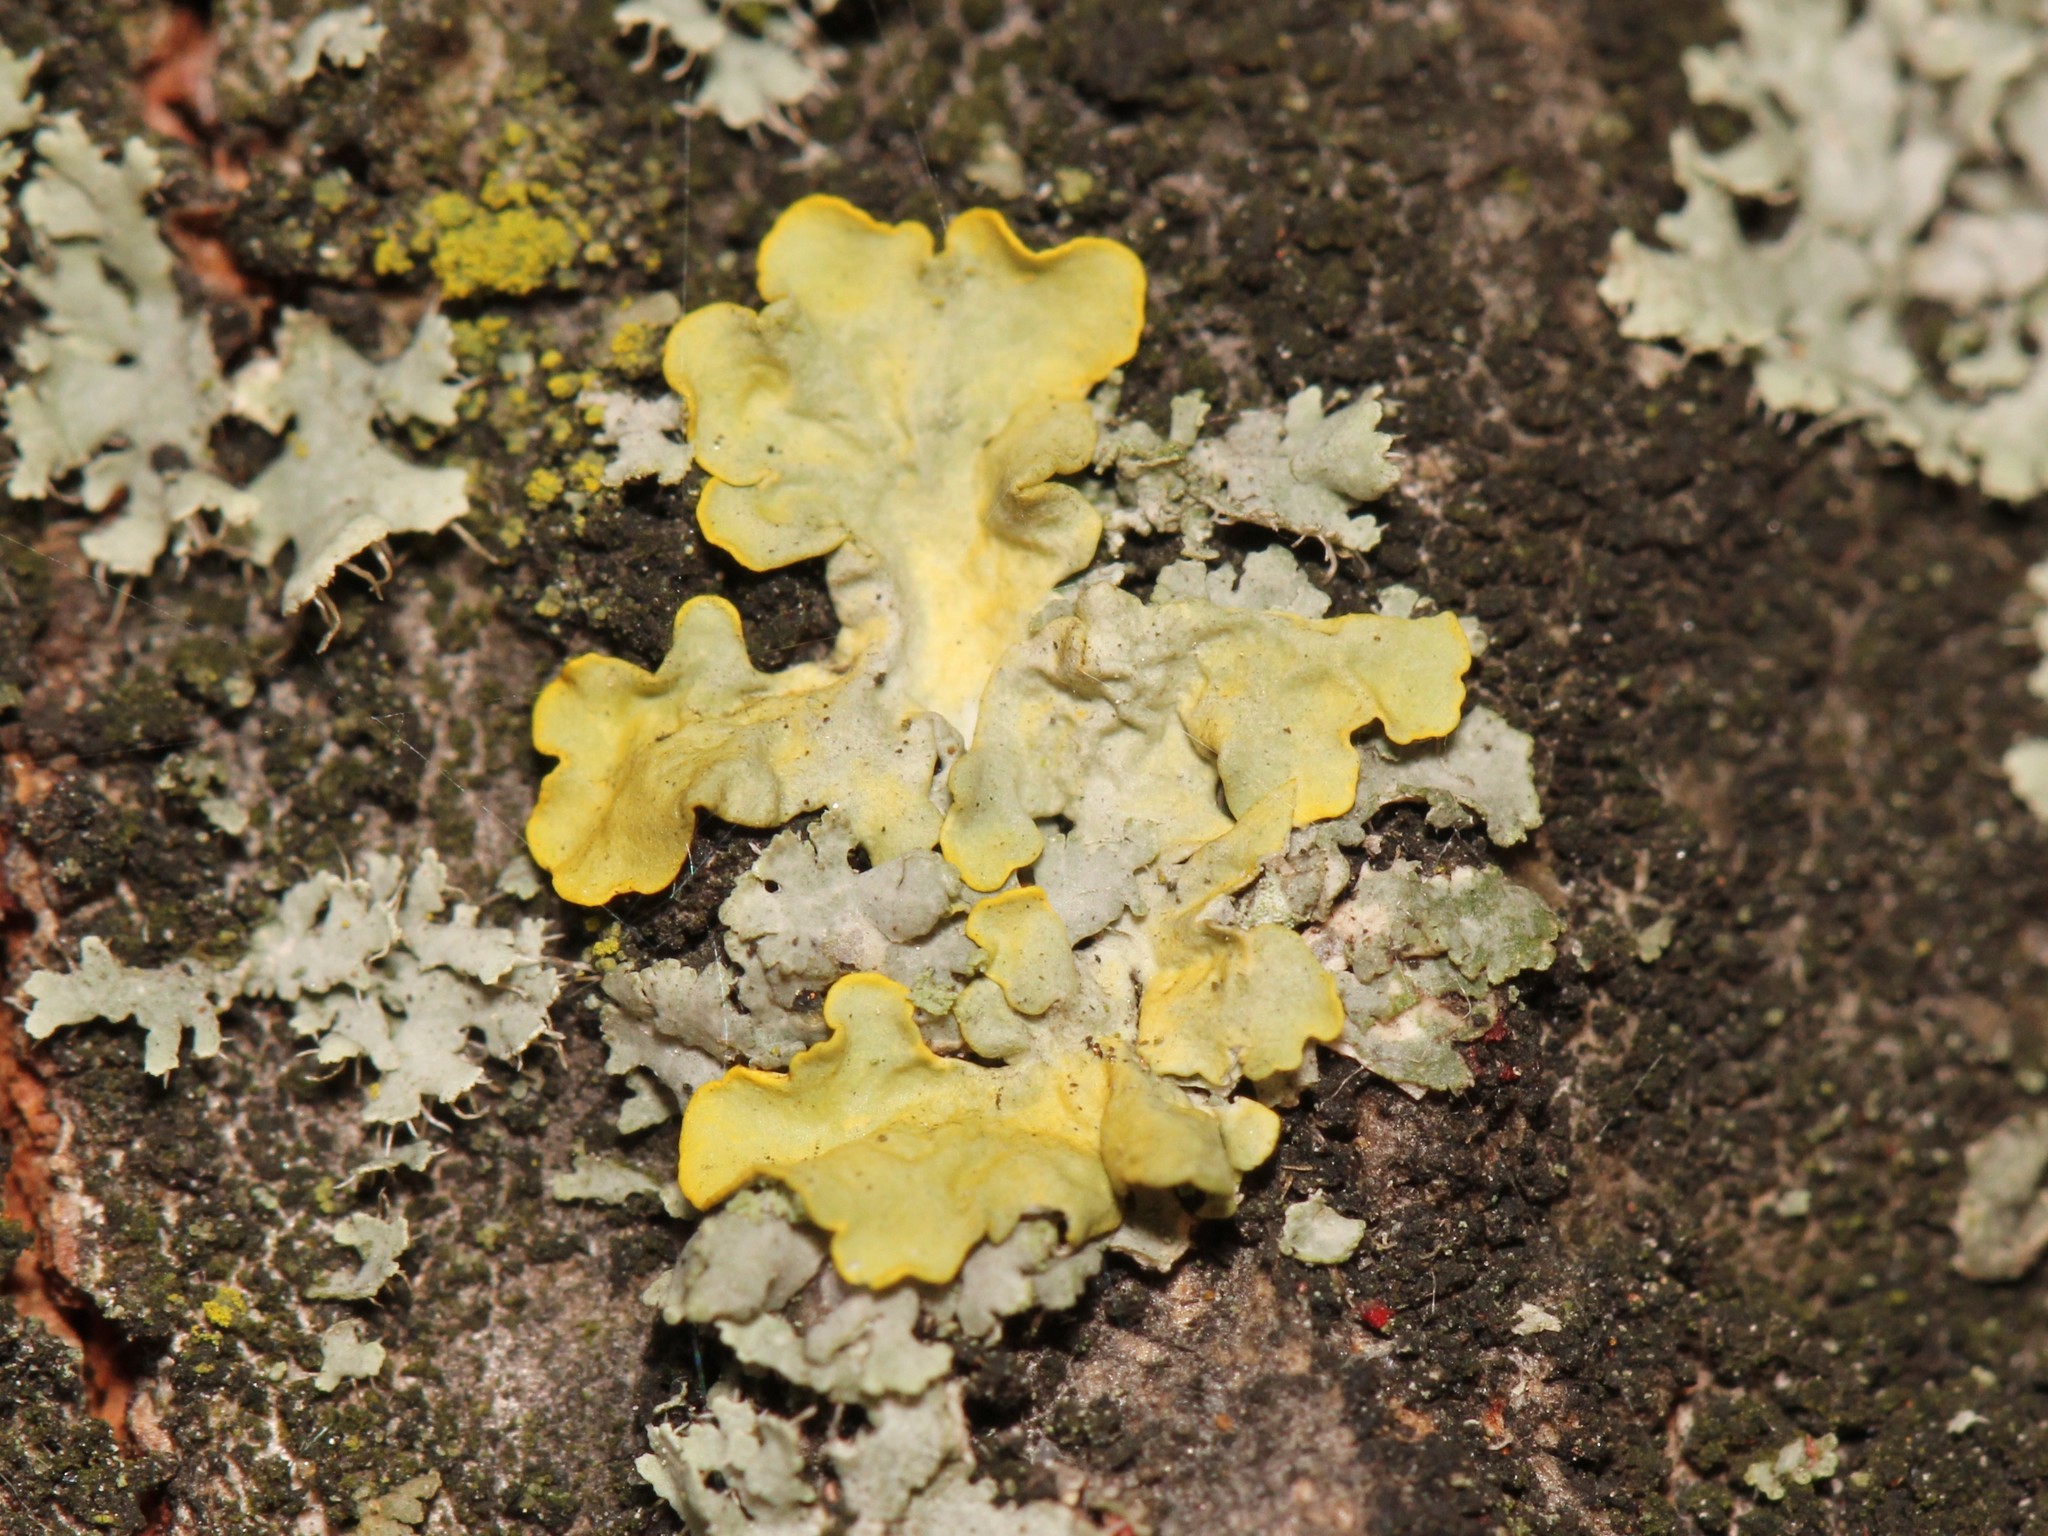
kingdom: Fungi
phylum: Ascomycota
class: Lecanoromycetes
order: Teloschistales
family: Teloschistaceae
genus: Xanthoria
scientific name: Xanthoria parietina
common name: Common orange lichen
